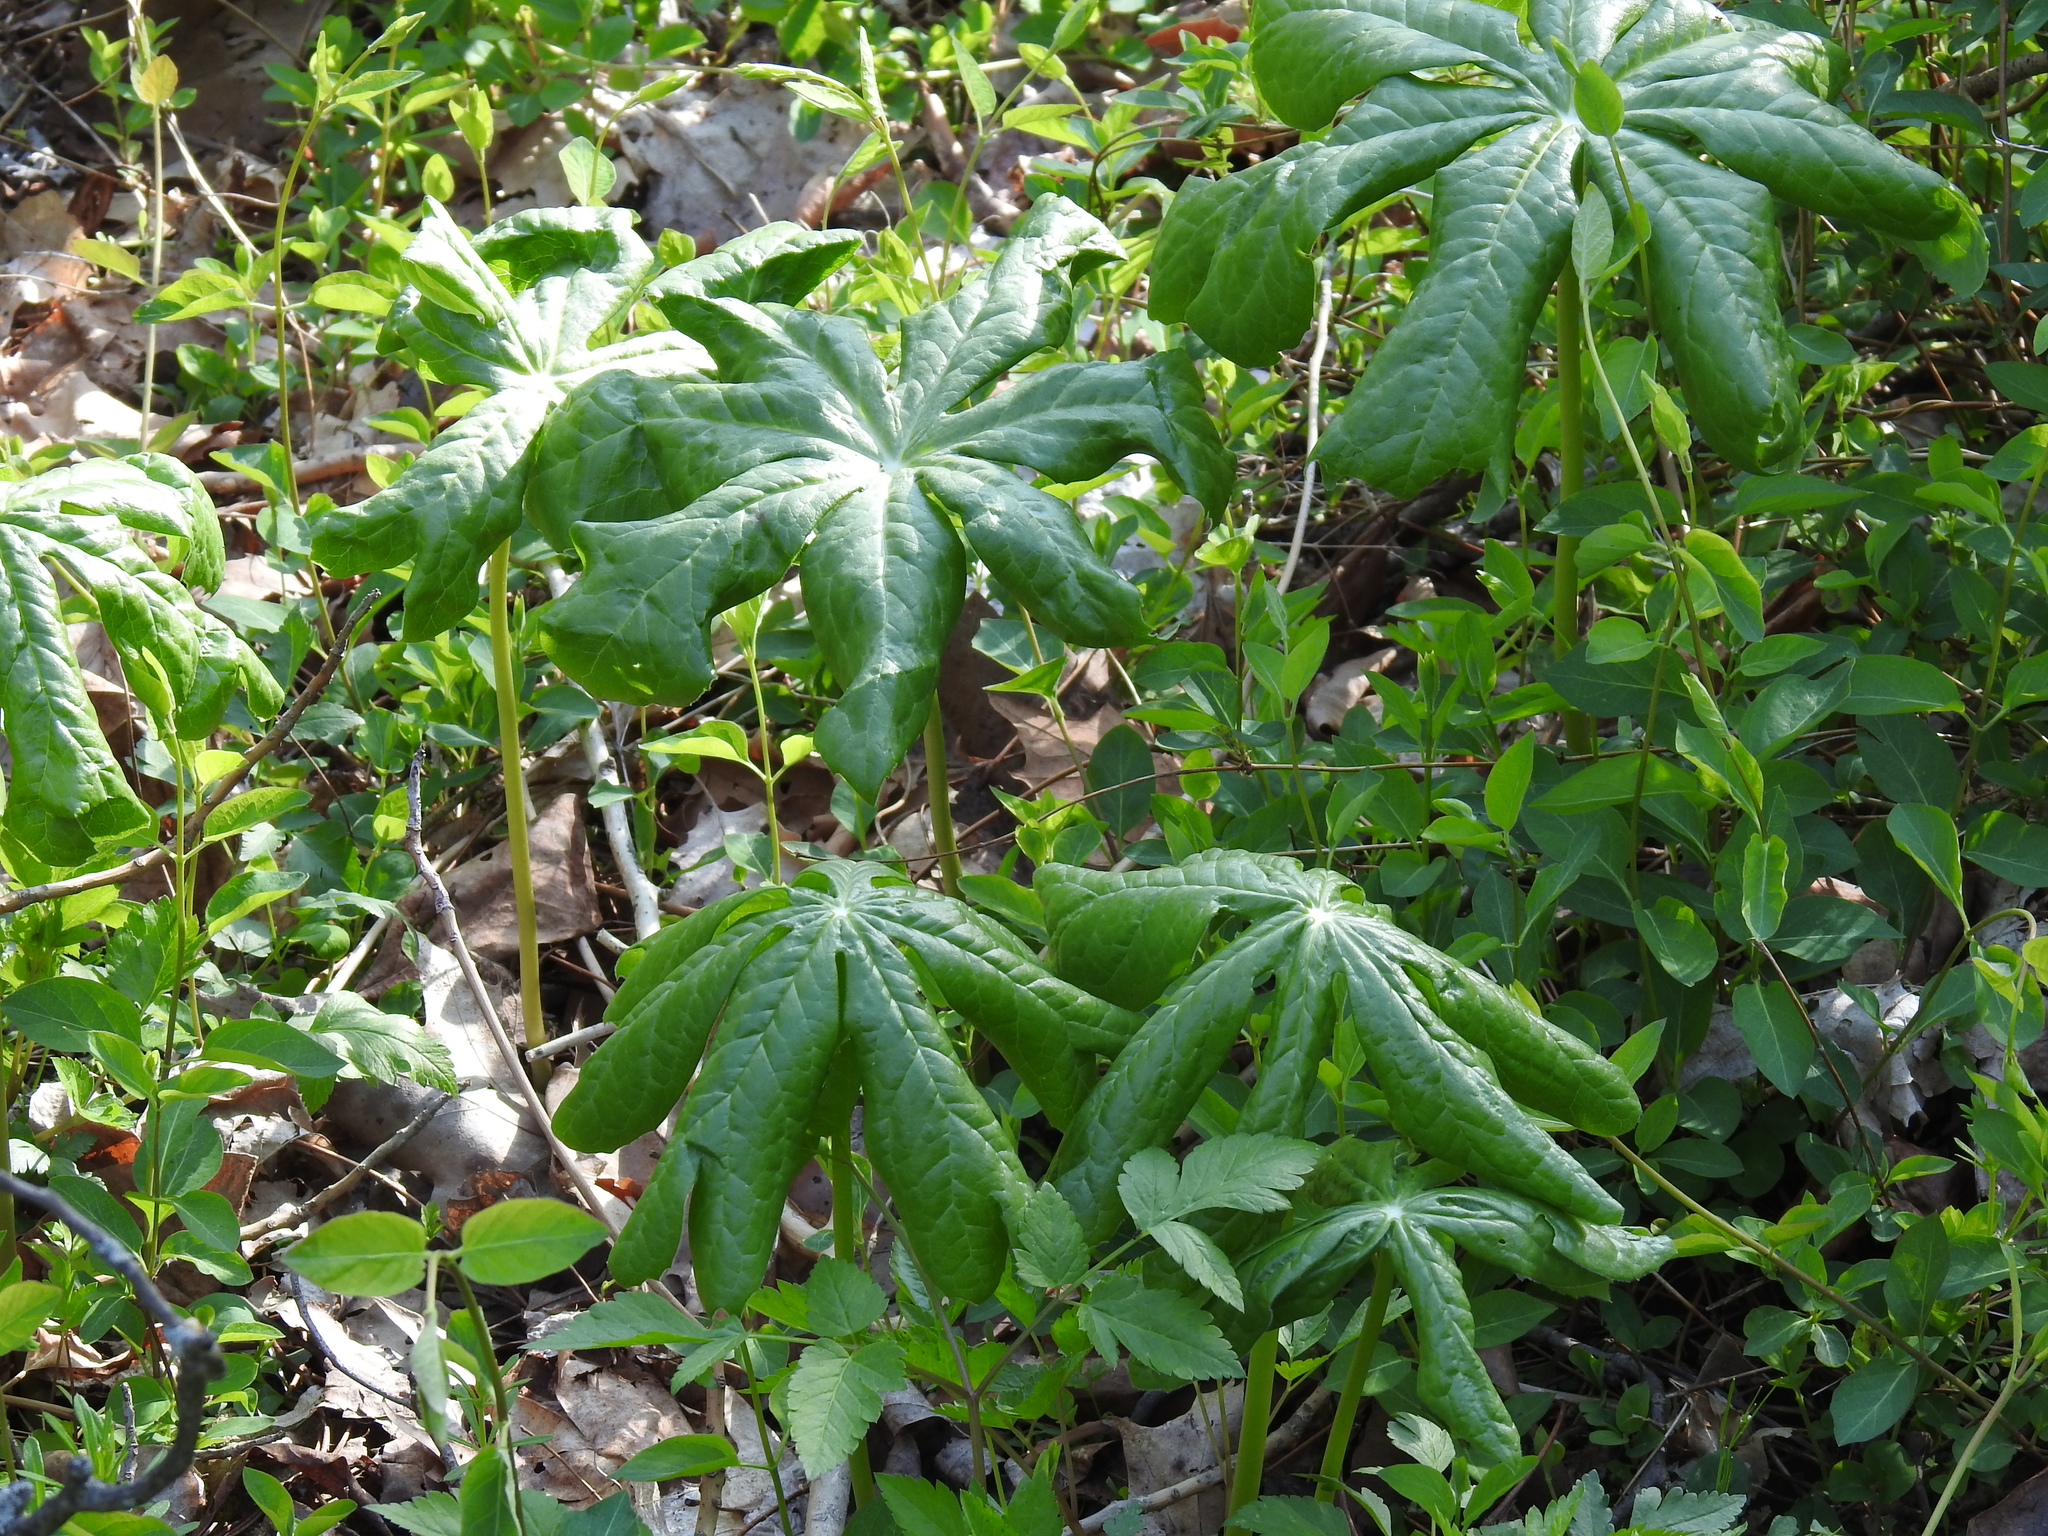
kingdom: Plantae
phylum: Tracheophyta
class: Magnoliopsida
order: Ranunculales
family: Berberidaceae
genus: Podophyllum
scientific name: Podophyllum peltatum
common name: Wild mandrake
